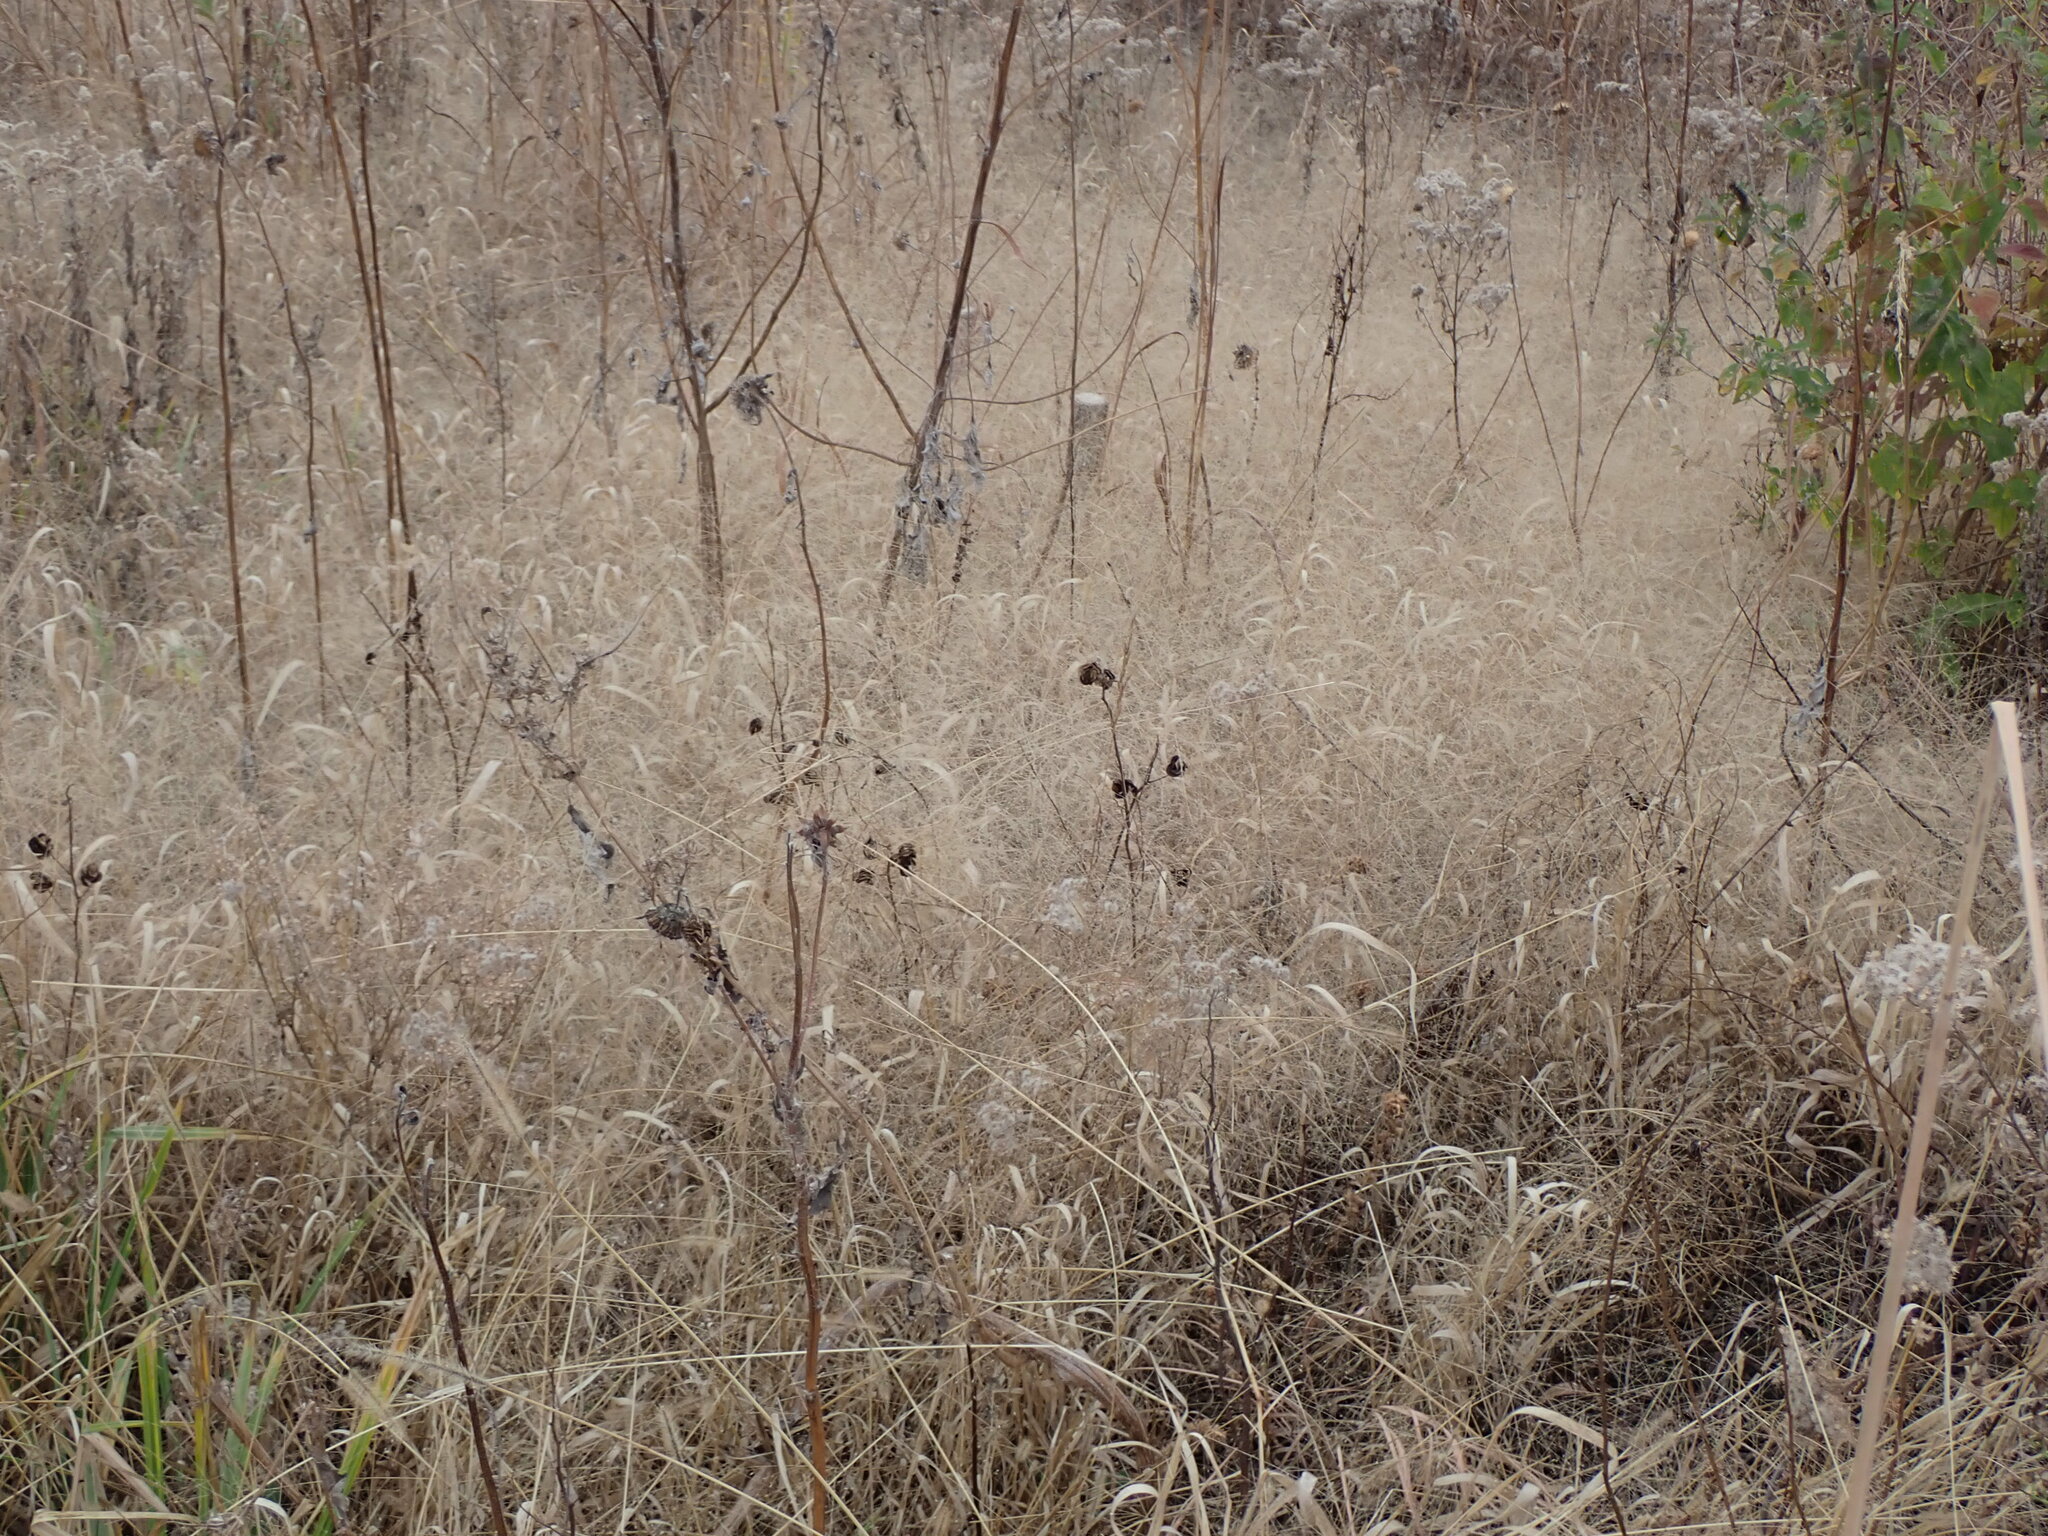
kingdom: Plantae
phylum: Tracheophyta
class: Liliopsida
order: Poales
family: Poaceae
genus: Panicum
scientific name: Panicum capillare
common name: Witch-grass
